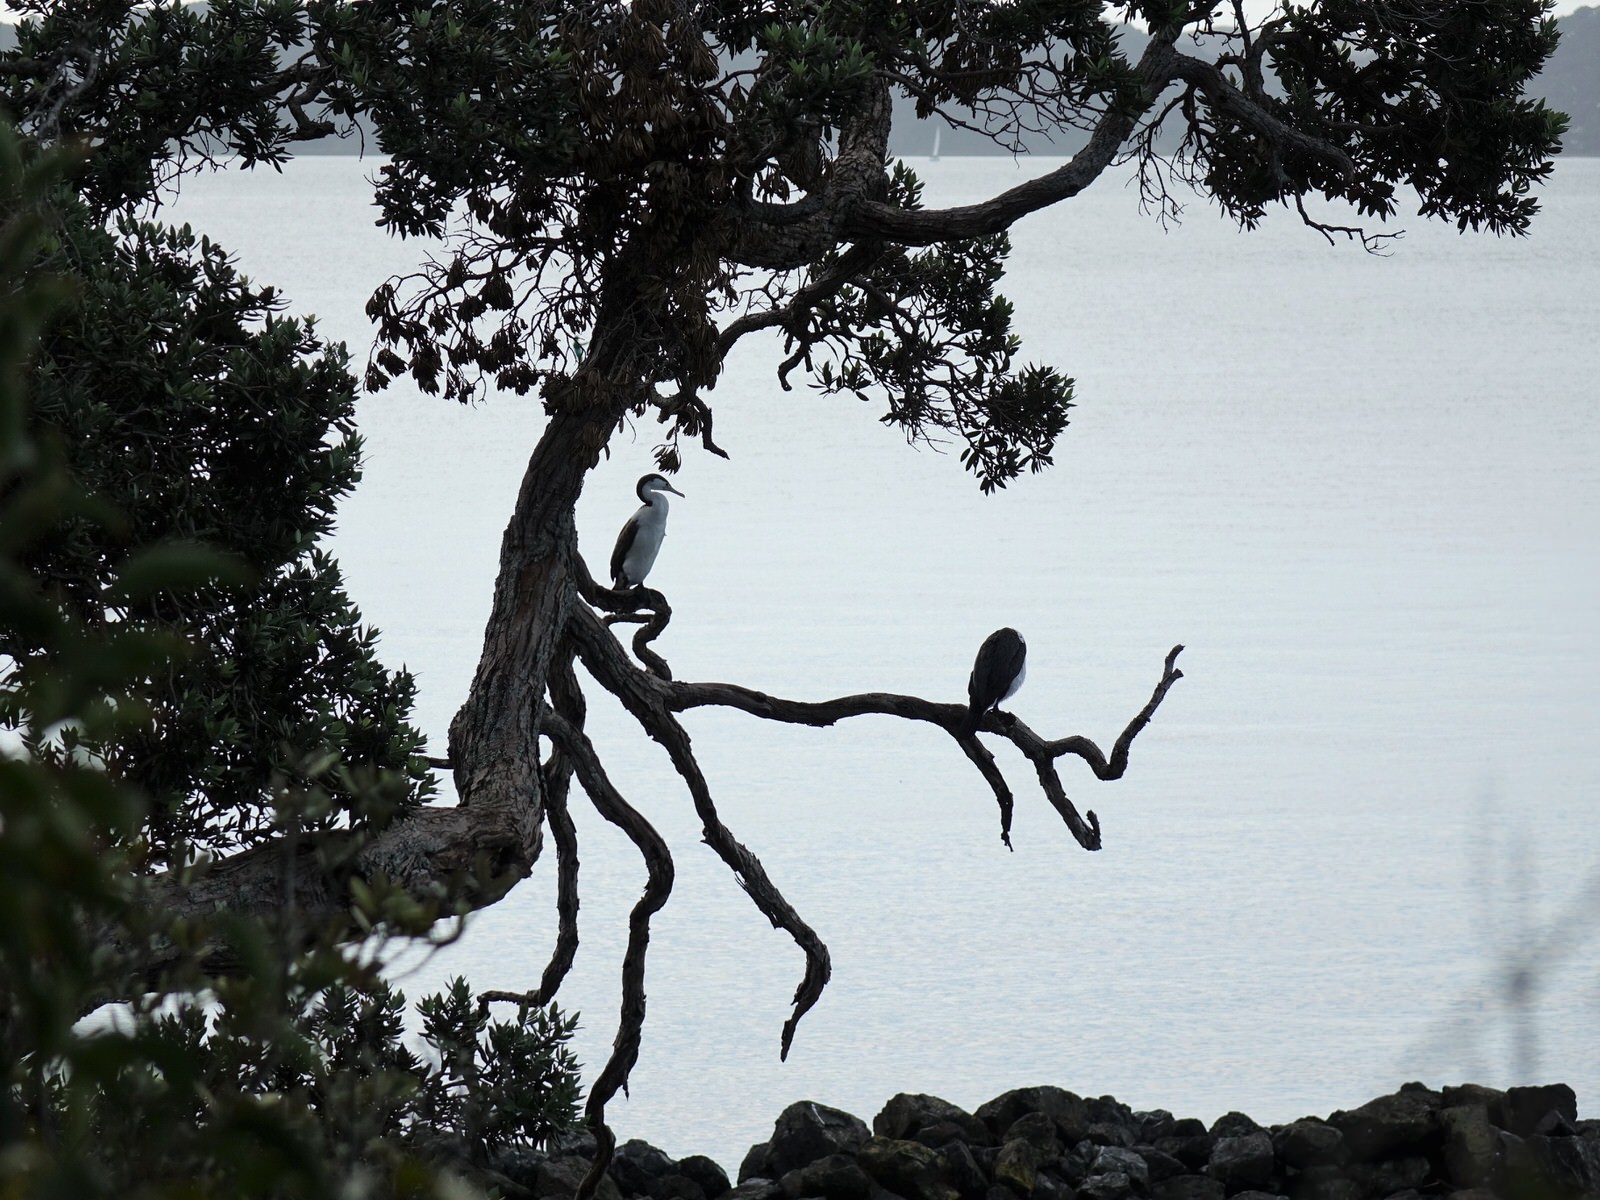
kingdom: Animalia
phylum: Chordata
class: Aves
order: Suliformes
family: Phalacrocoracidae
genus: Phalacrocorax
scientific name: Phalacrocorax varius
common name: Pied cormorant
